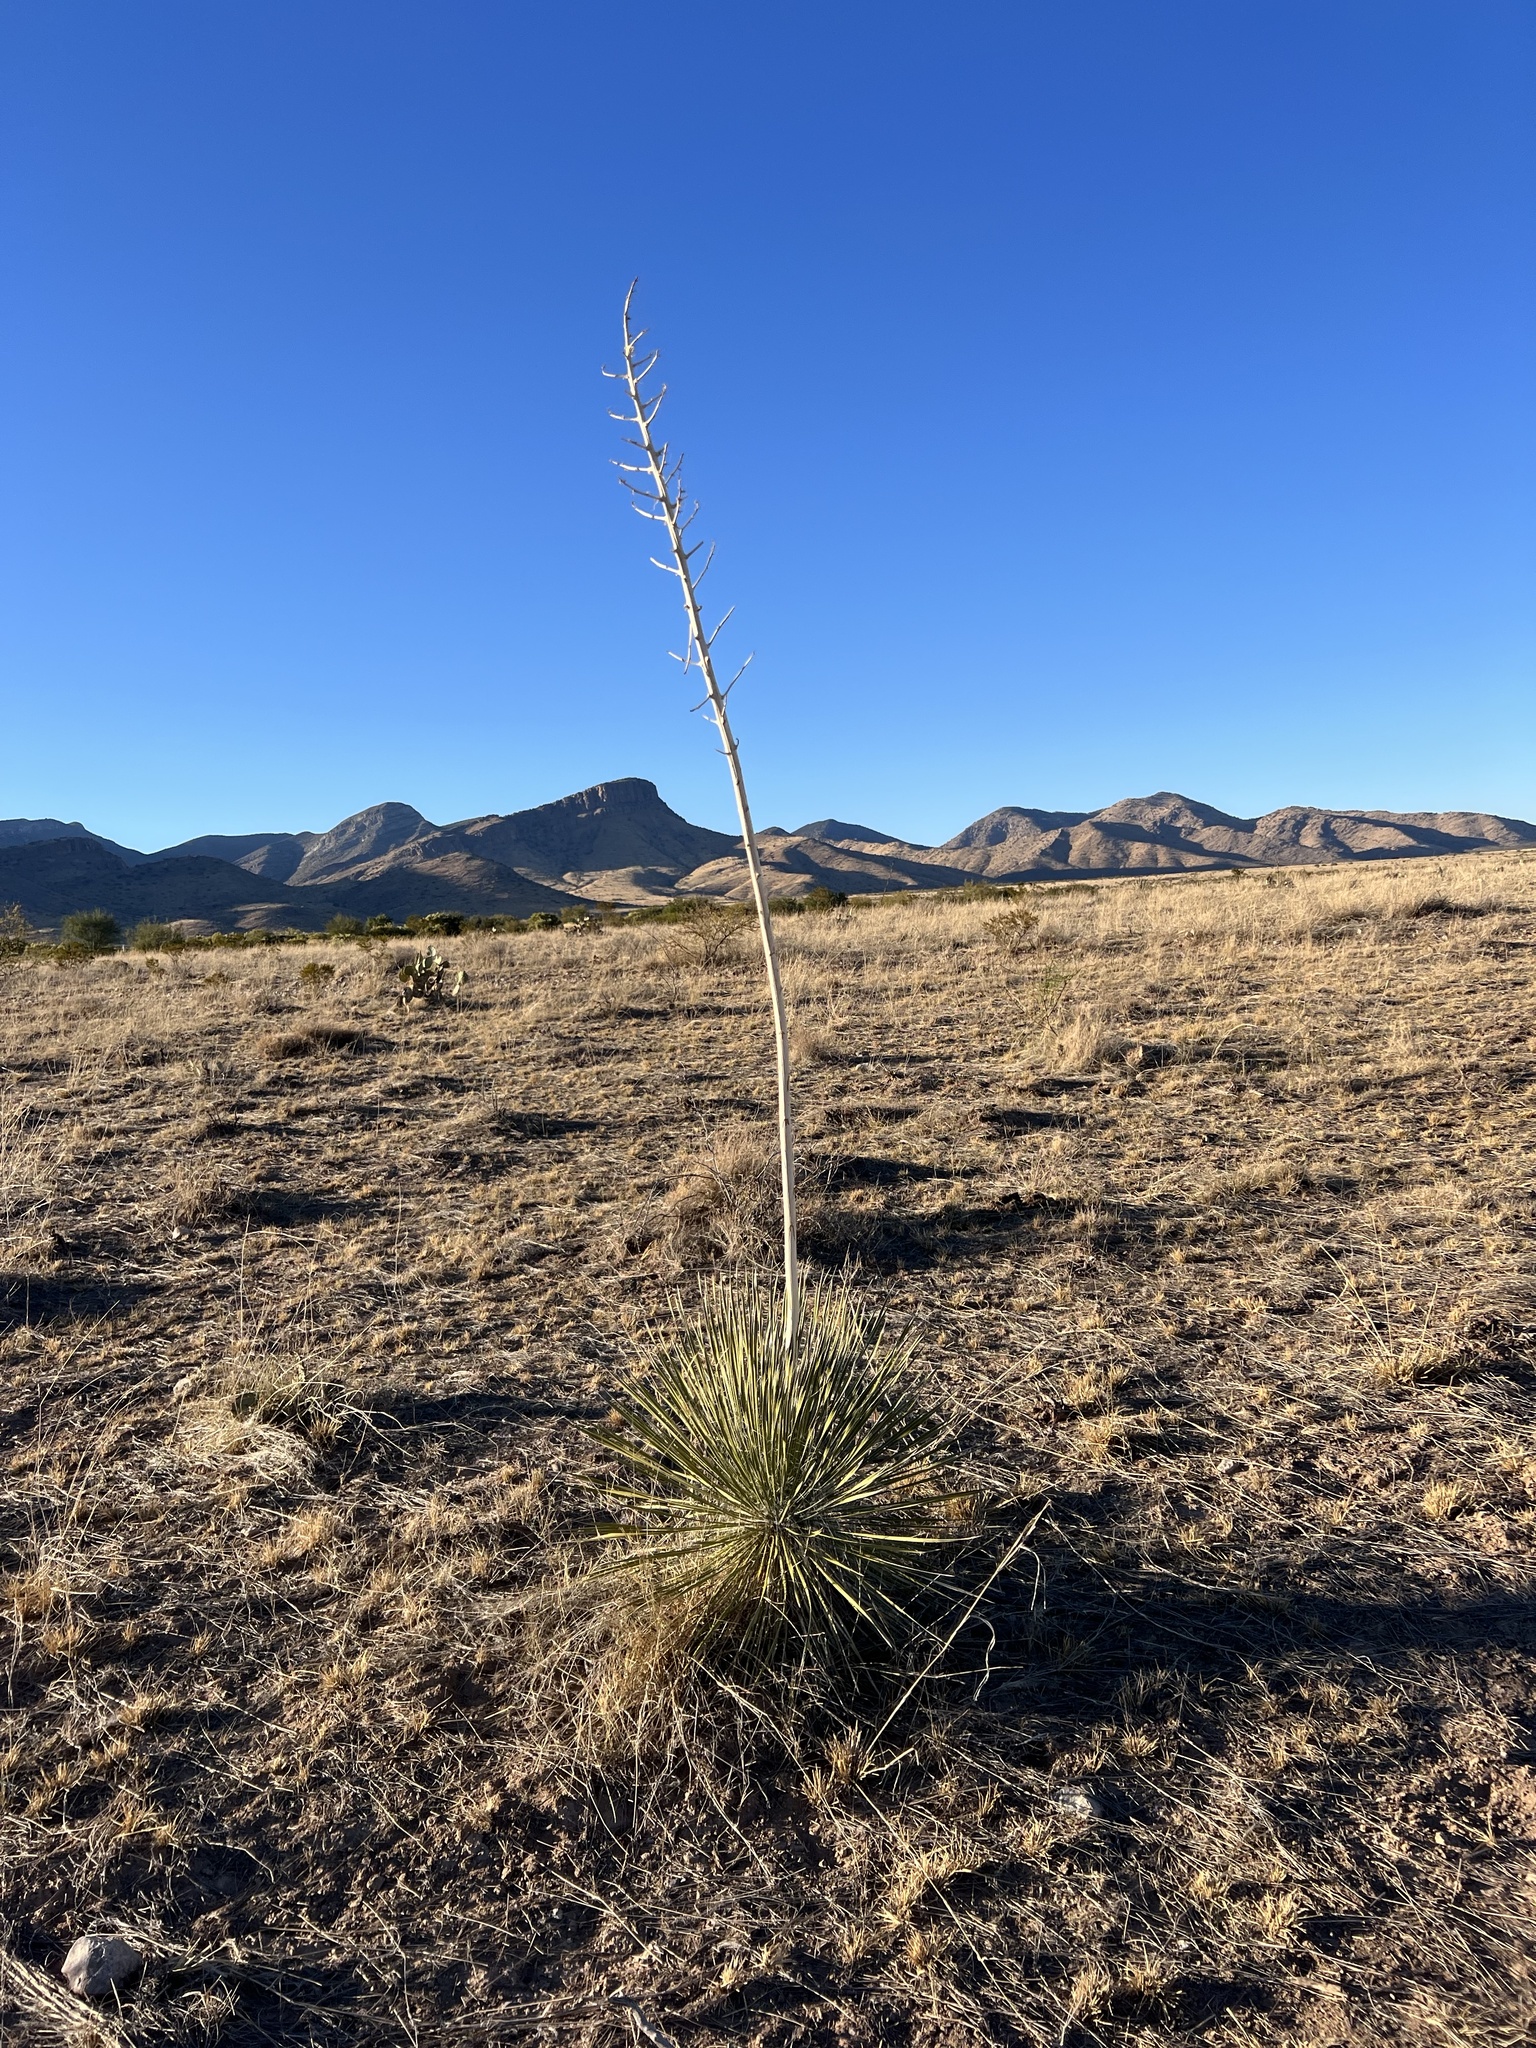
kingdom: Plantae
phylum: Tracheophyta
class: Liliopsida
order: Asparagales
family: Asparagaceae
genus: Yucca
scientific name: Yucca elata
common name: Palmella
